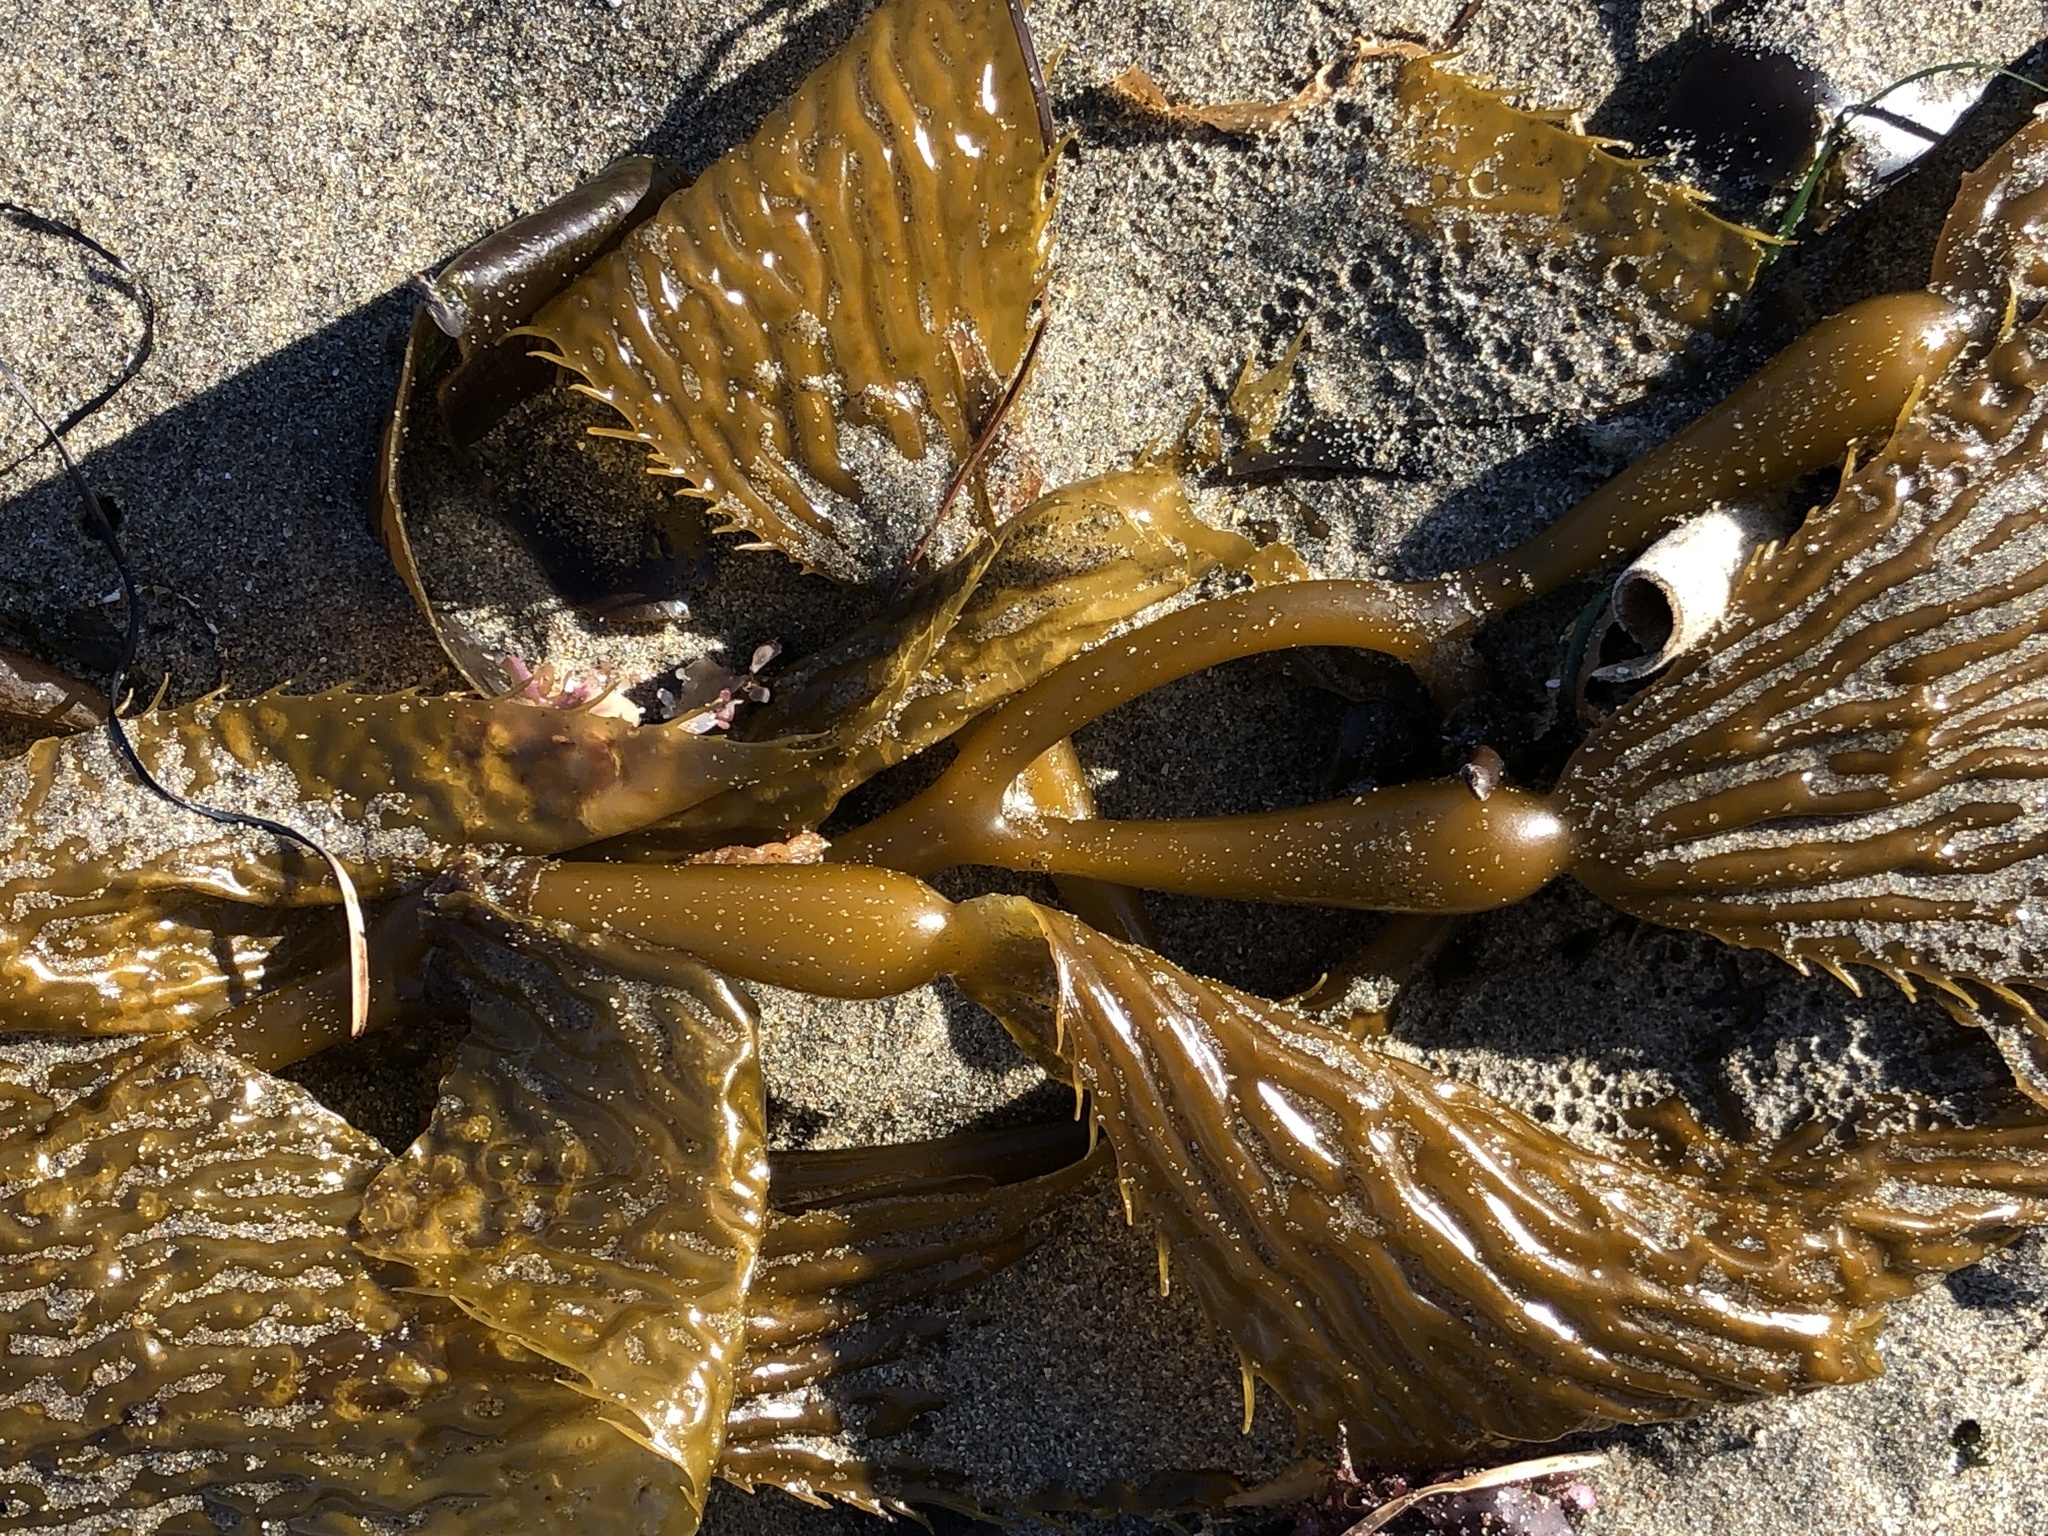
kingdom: Chromista
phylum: Ochrophyta
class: Phaeophyceae
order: Laminariales
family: Laminariaceae
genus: Macrocystis
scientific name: Macrocystis pyrifera
